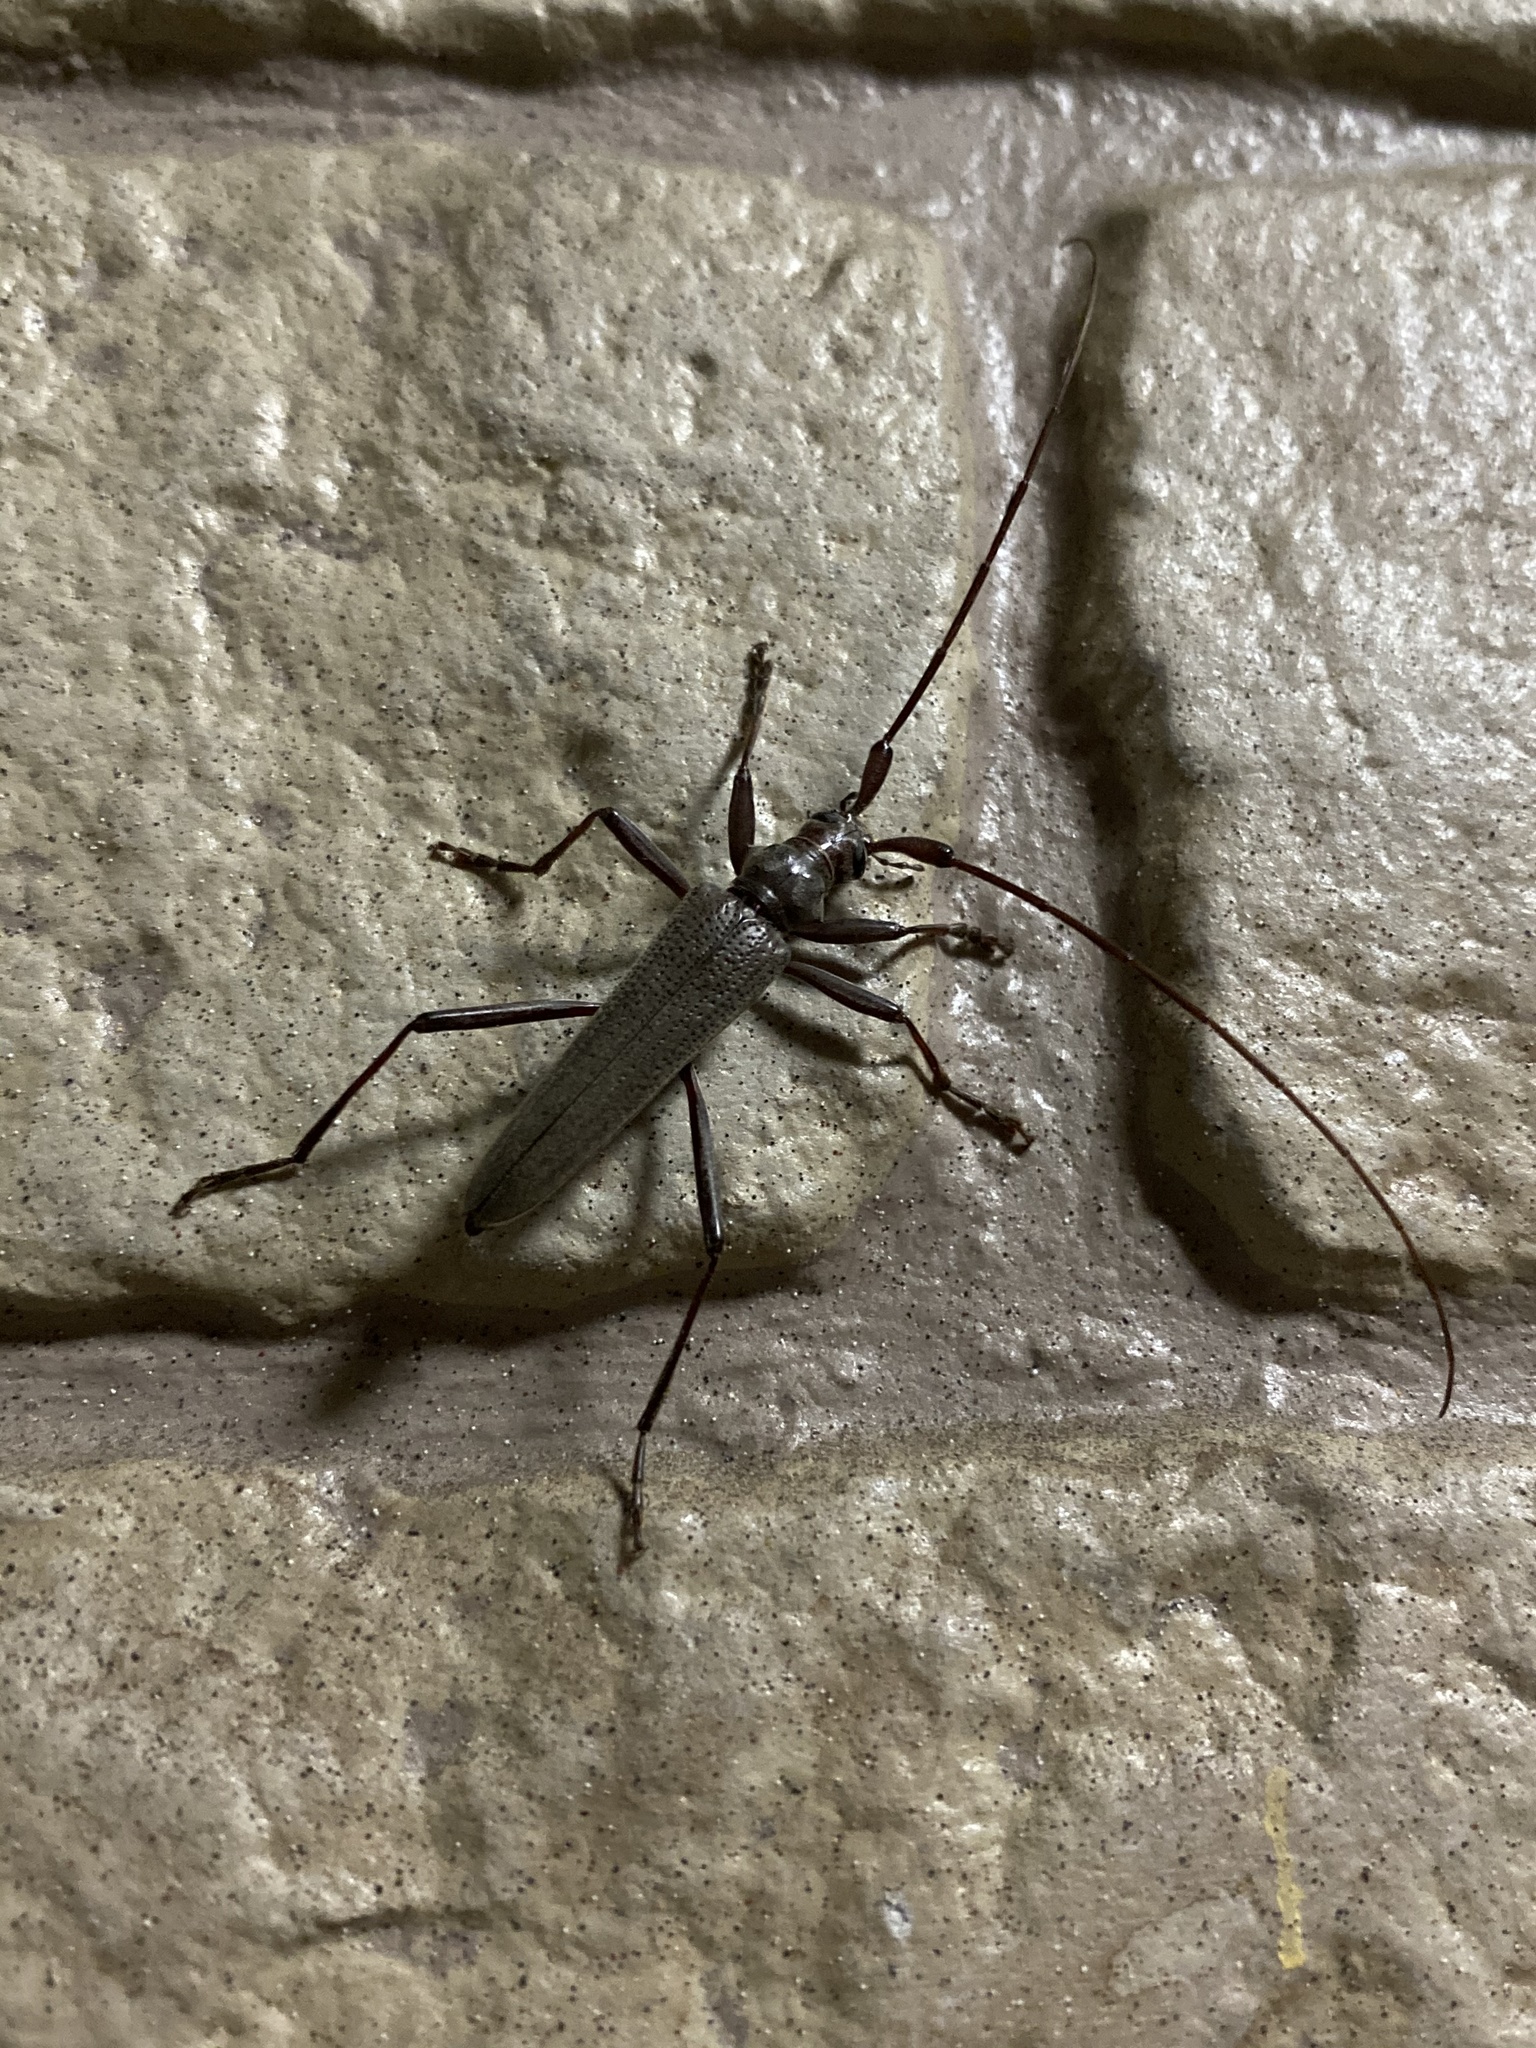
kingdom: Animalia
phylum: Arthropoda
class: Insecta
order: Coleoptera
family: Cerambycidae
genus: Distenia
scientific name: Distenia gracilis
